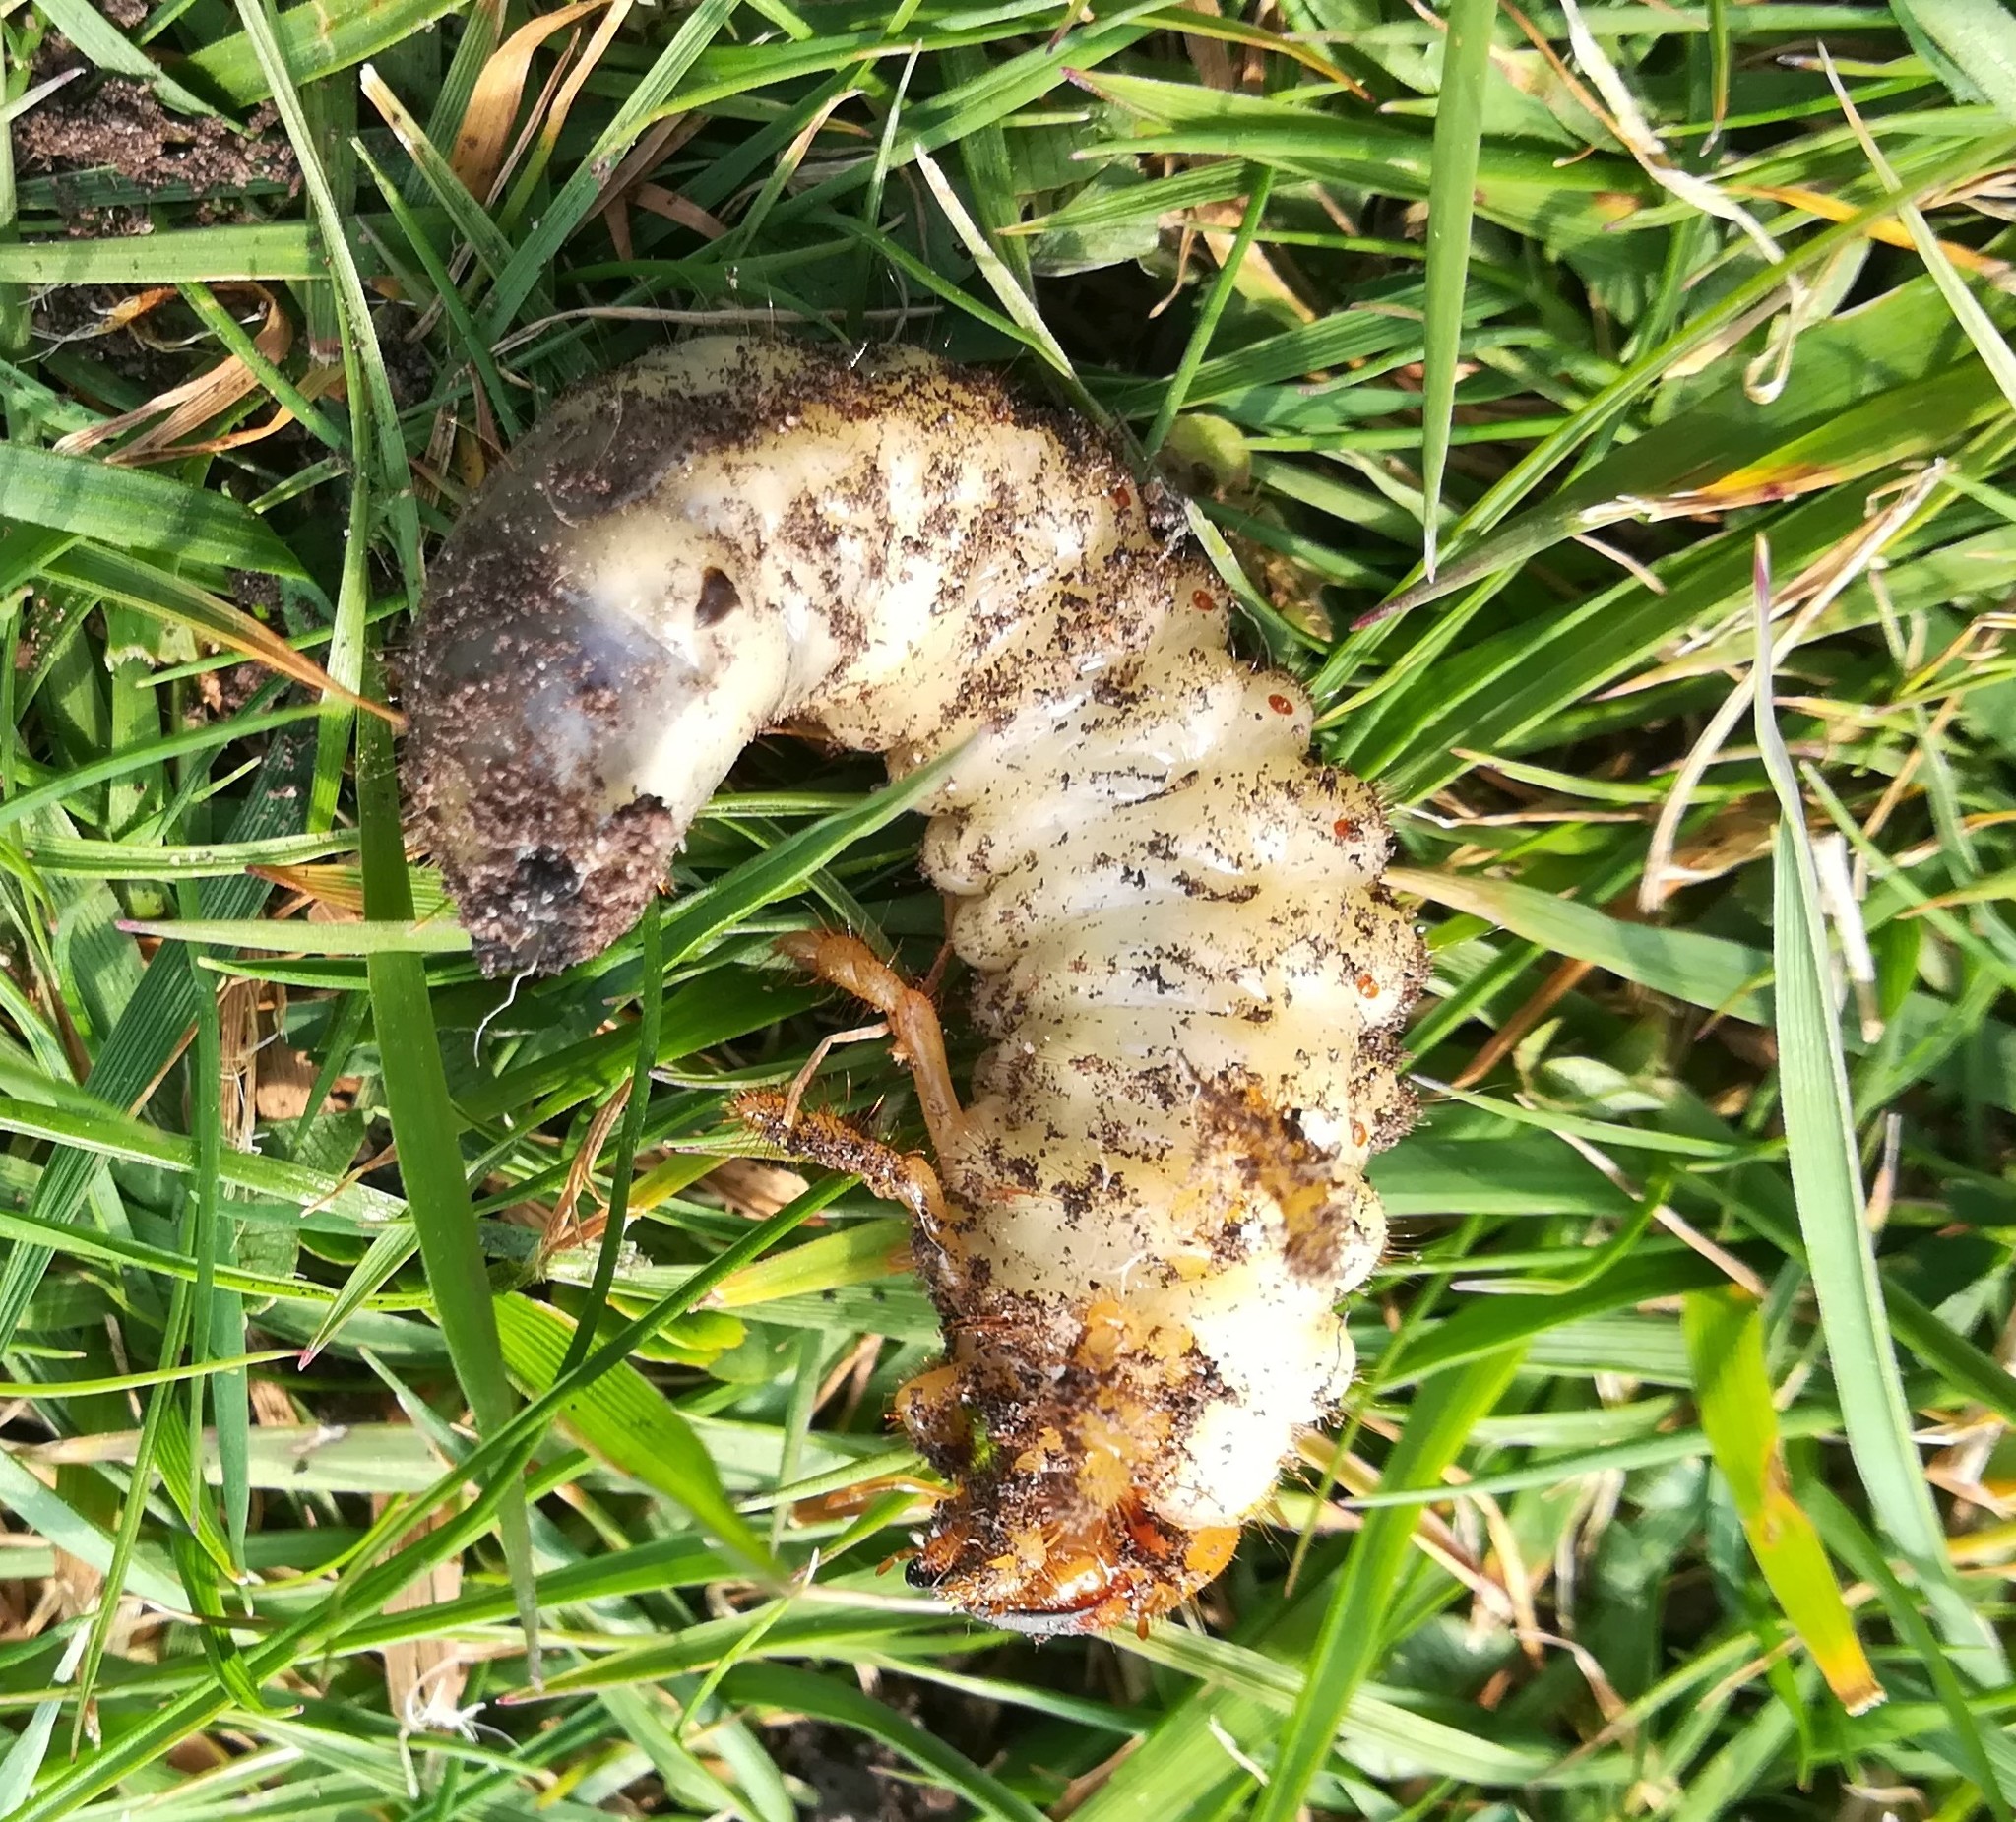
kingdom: Animalia
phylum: Arthropoda
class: Insecta
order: Coleoptera
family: Scarabaeidae
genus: Melolontha
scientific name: Melolontha melolontha
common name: Cockchafer maybeetle
